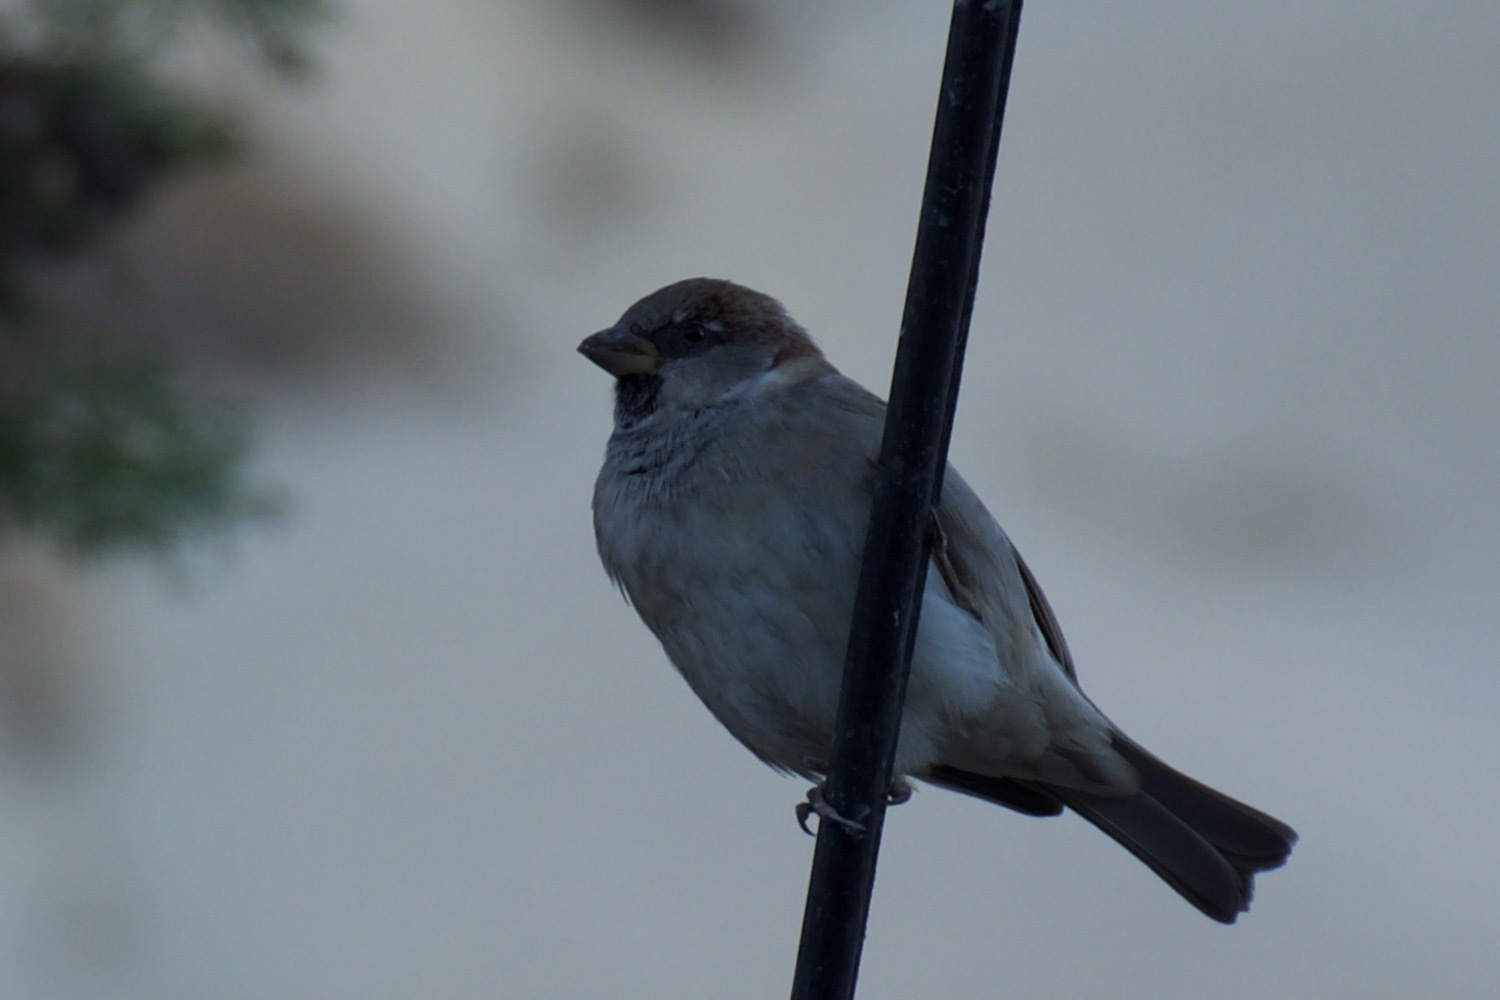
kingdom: Animalia
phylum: Chordata
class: Aves
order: Passeriformes
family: Passeridae
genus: Passer
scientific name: Passer domesticus
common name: House sparrow
